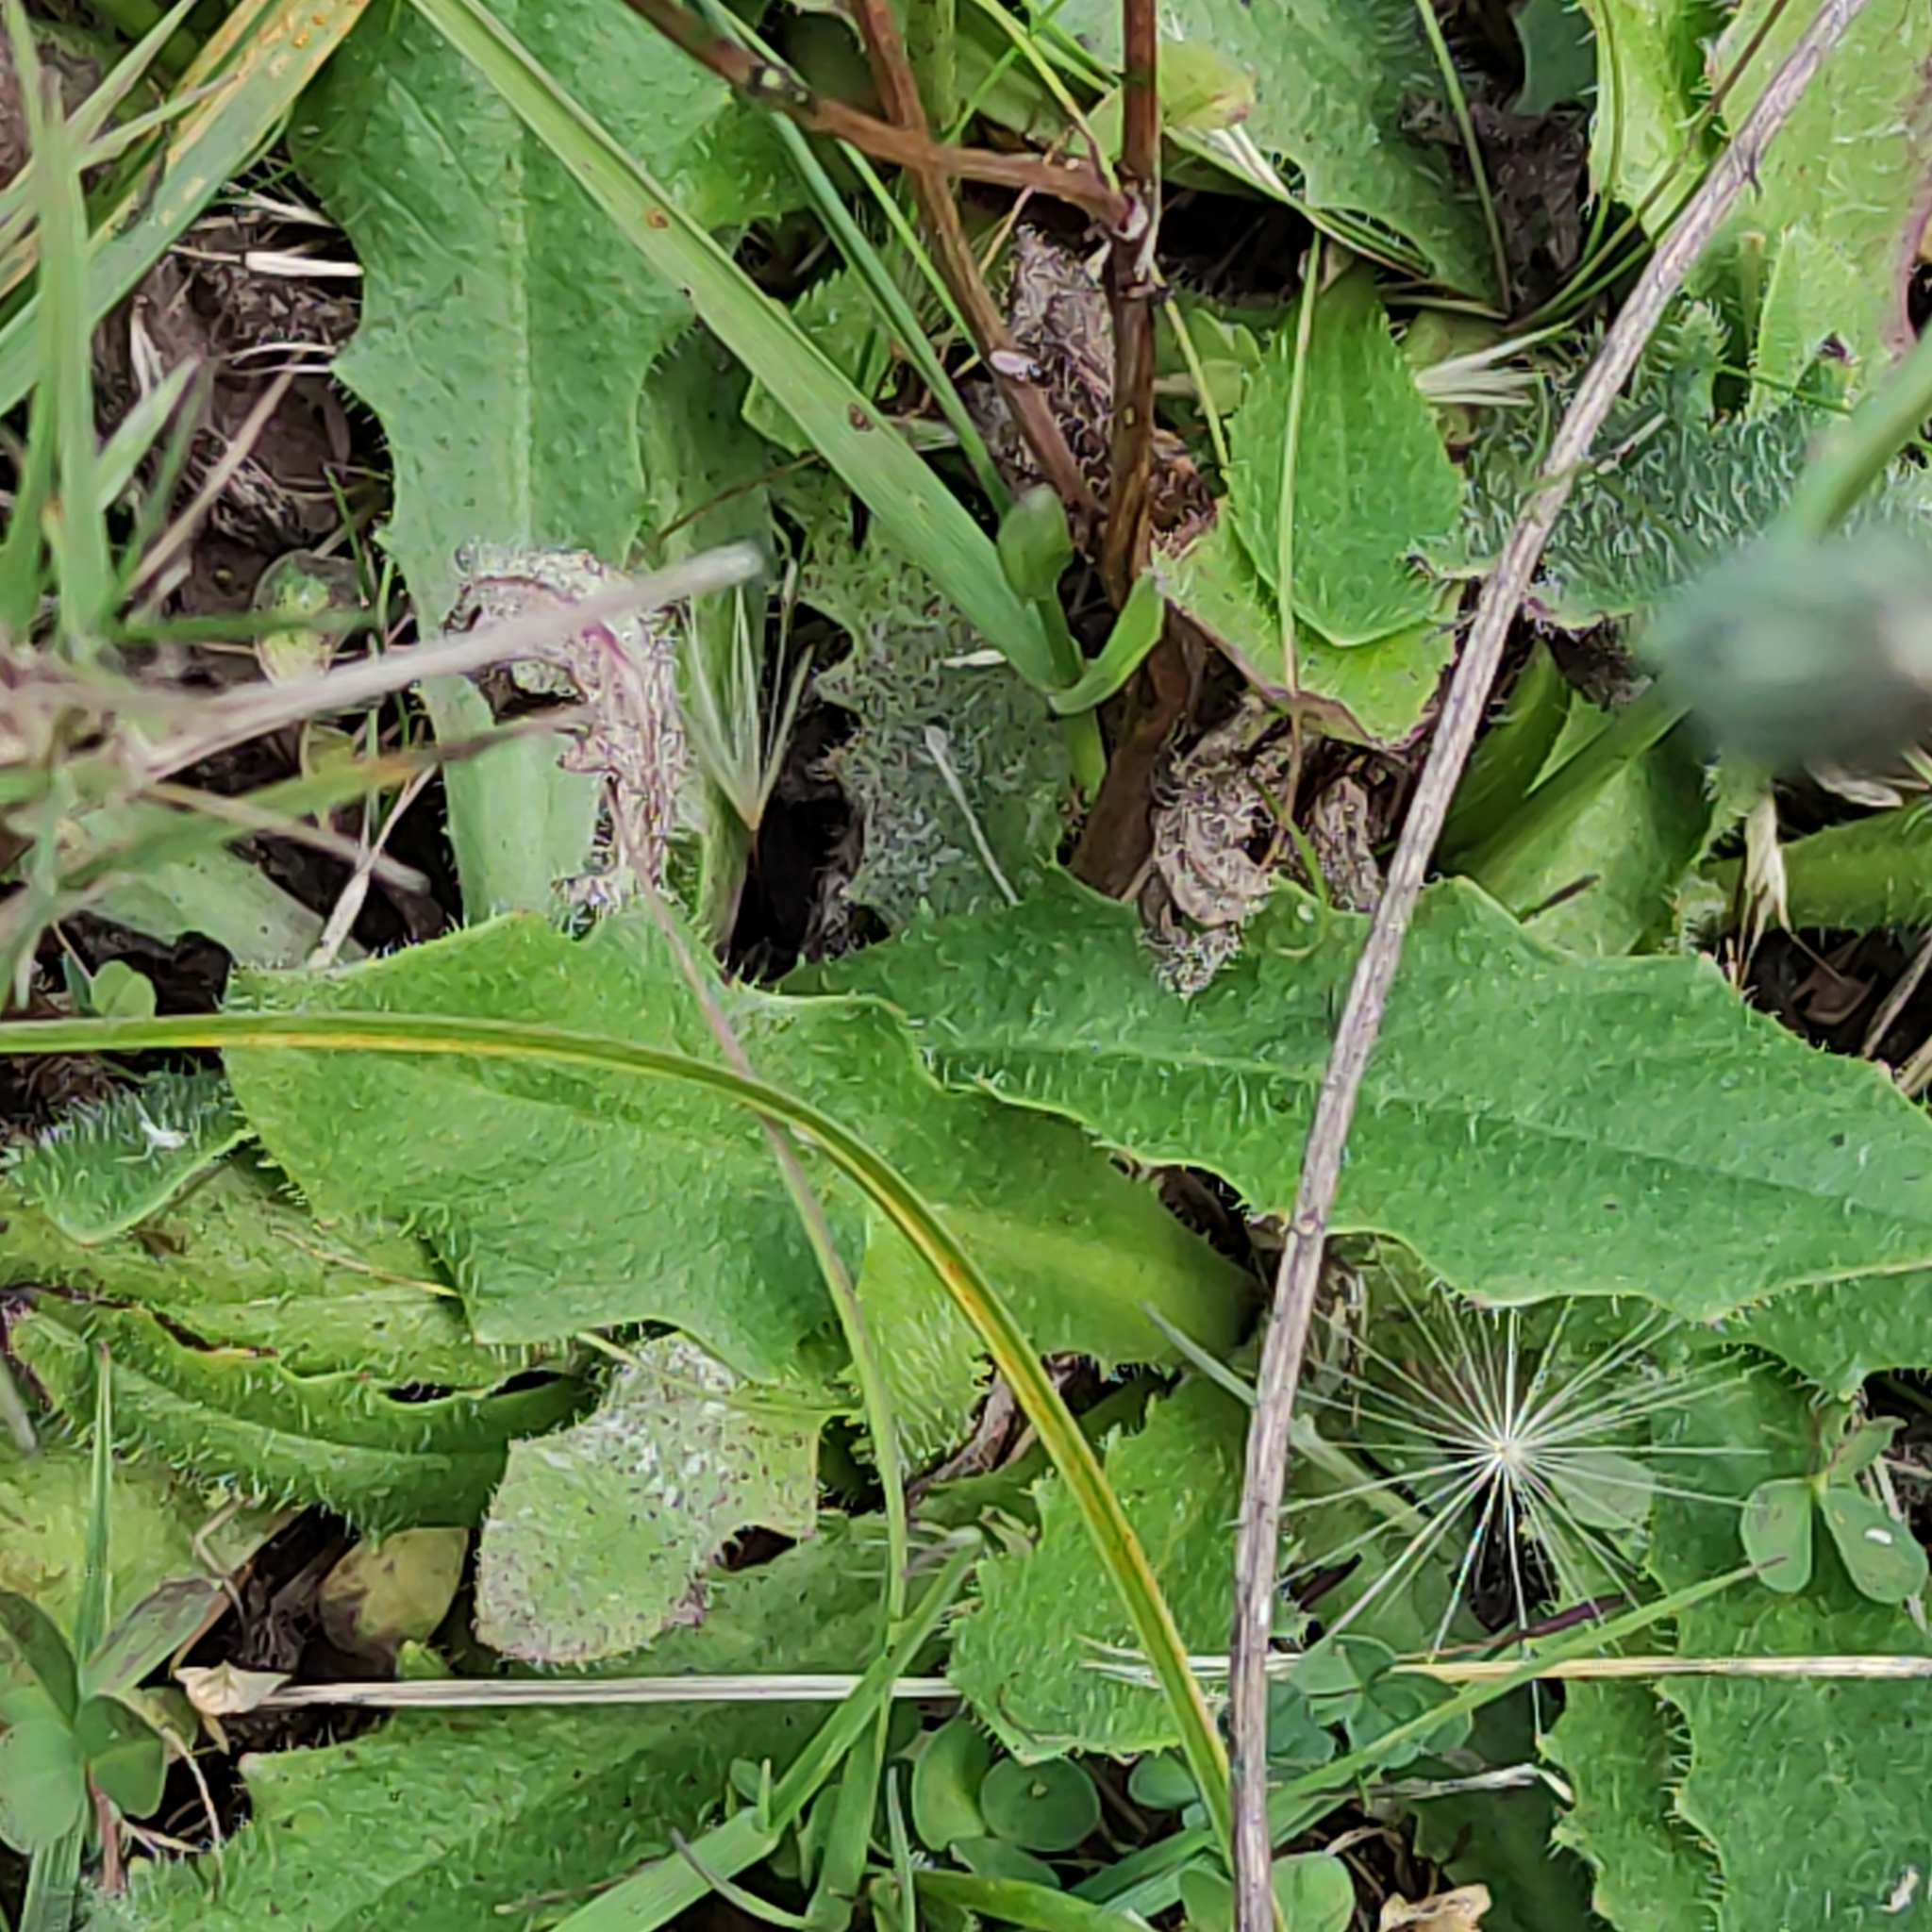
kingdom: Plantae
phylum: Tracheophyta
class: Magnoliopsida
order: Asterales
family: Asteraceae
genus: Hypochaeris
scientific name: Hypochaeris radicata
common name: Flatweed
